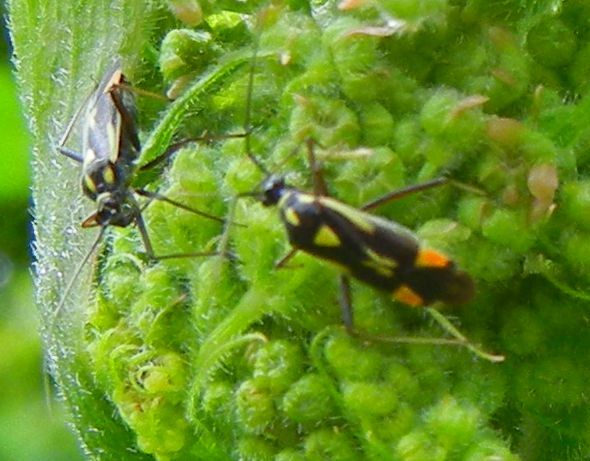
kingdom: Animalia
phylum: Arthropoda
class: Insecta
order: Hemiptera
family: Miridae
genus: Grypocoris
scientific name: Grypocoris stysi
